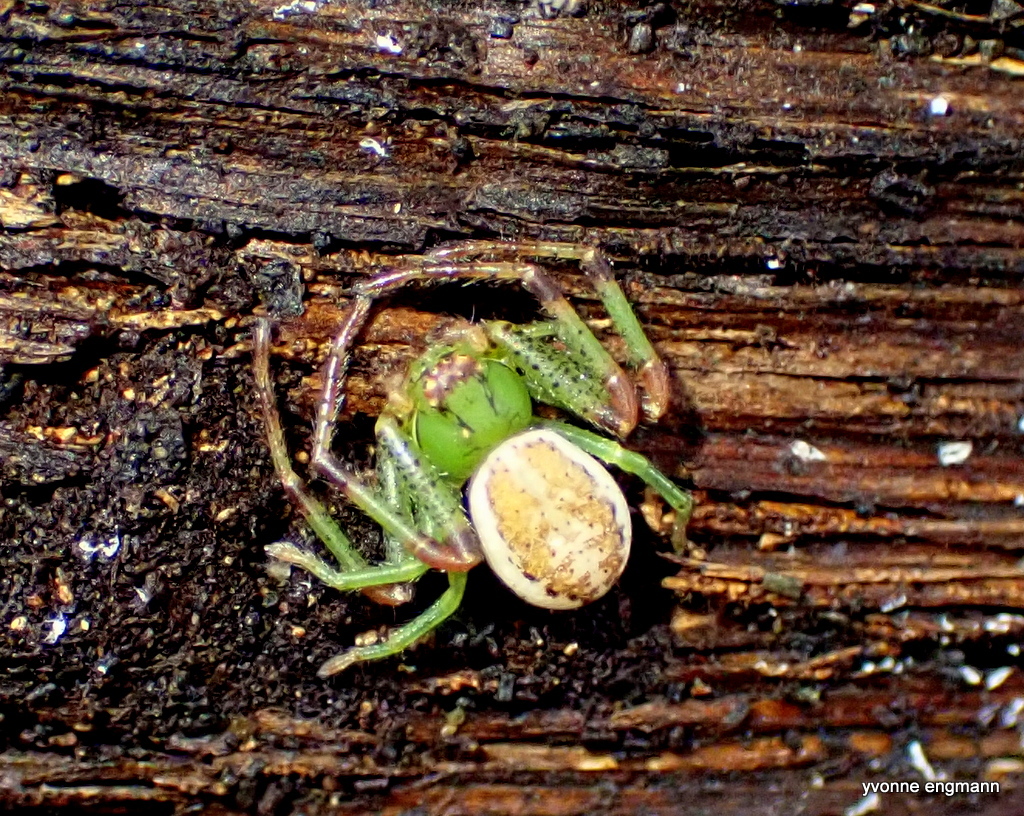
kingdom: Animalia
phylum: Arthropoda
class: Arachnida
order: Araneae
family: Thomisidae
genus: Diaea
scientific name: Diaea dorsata
